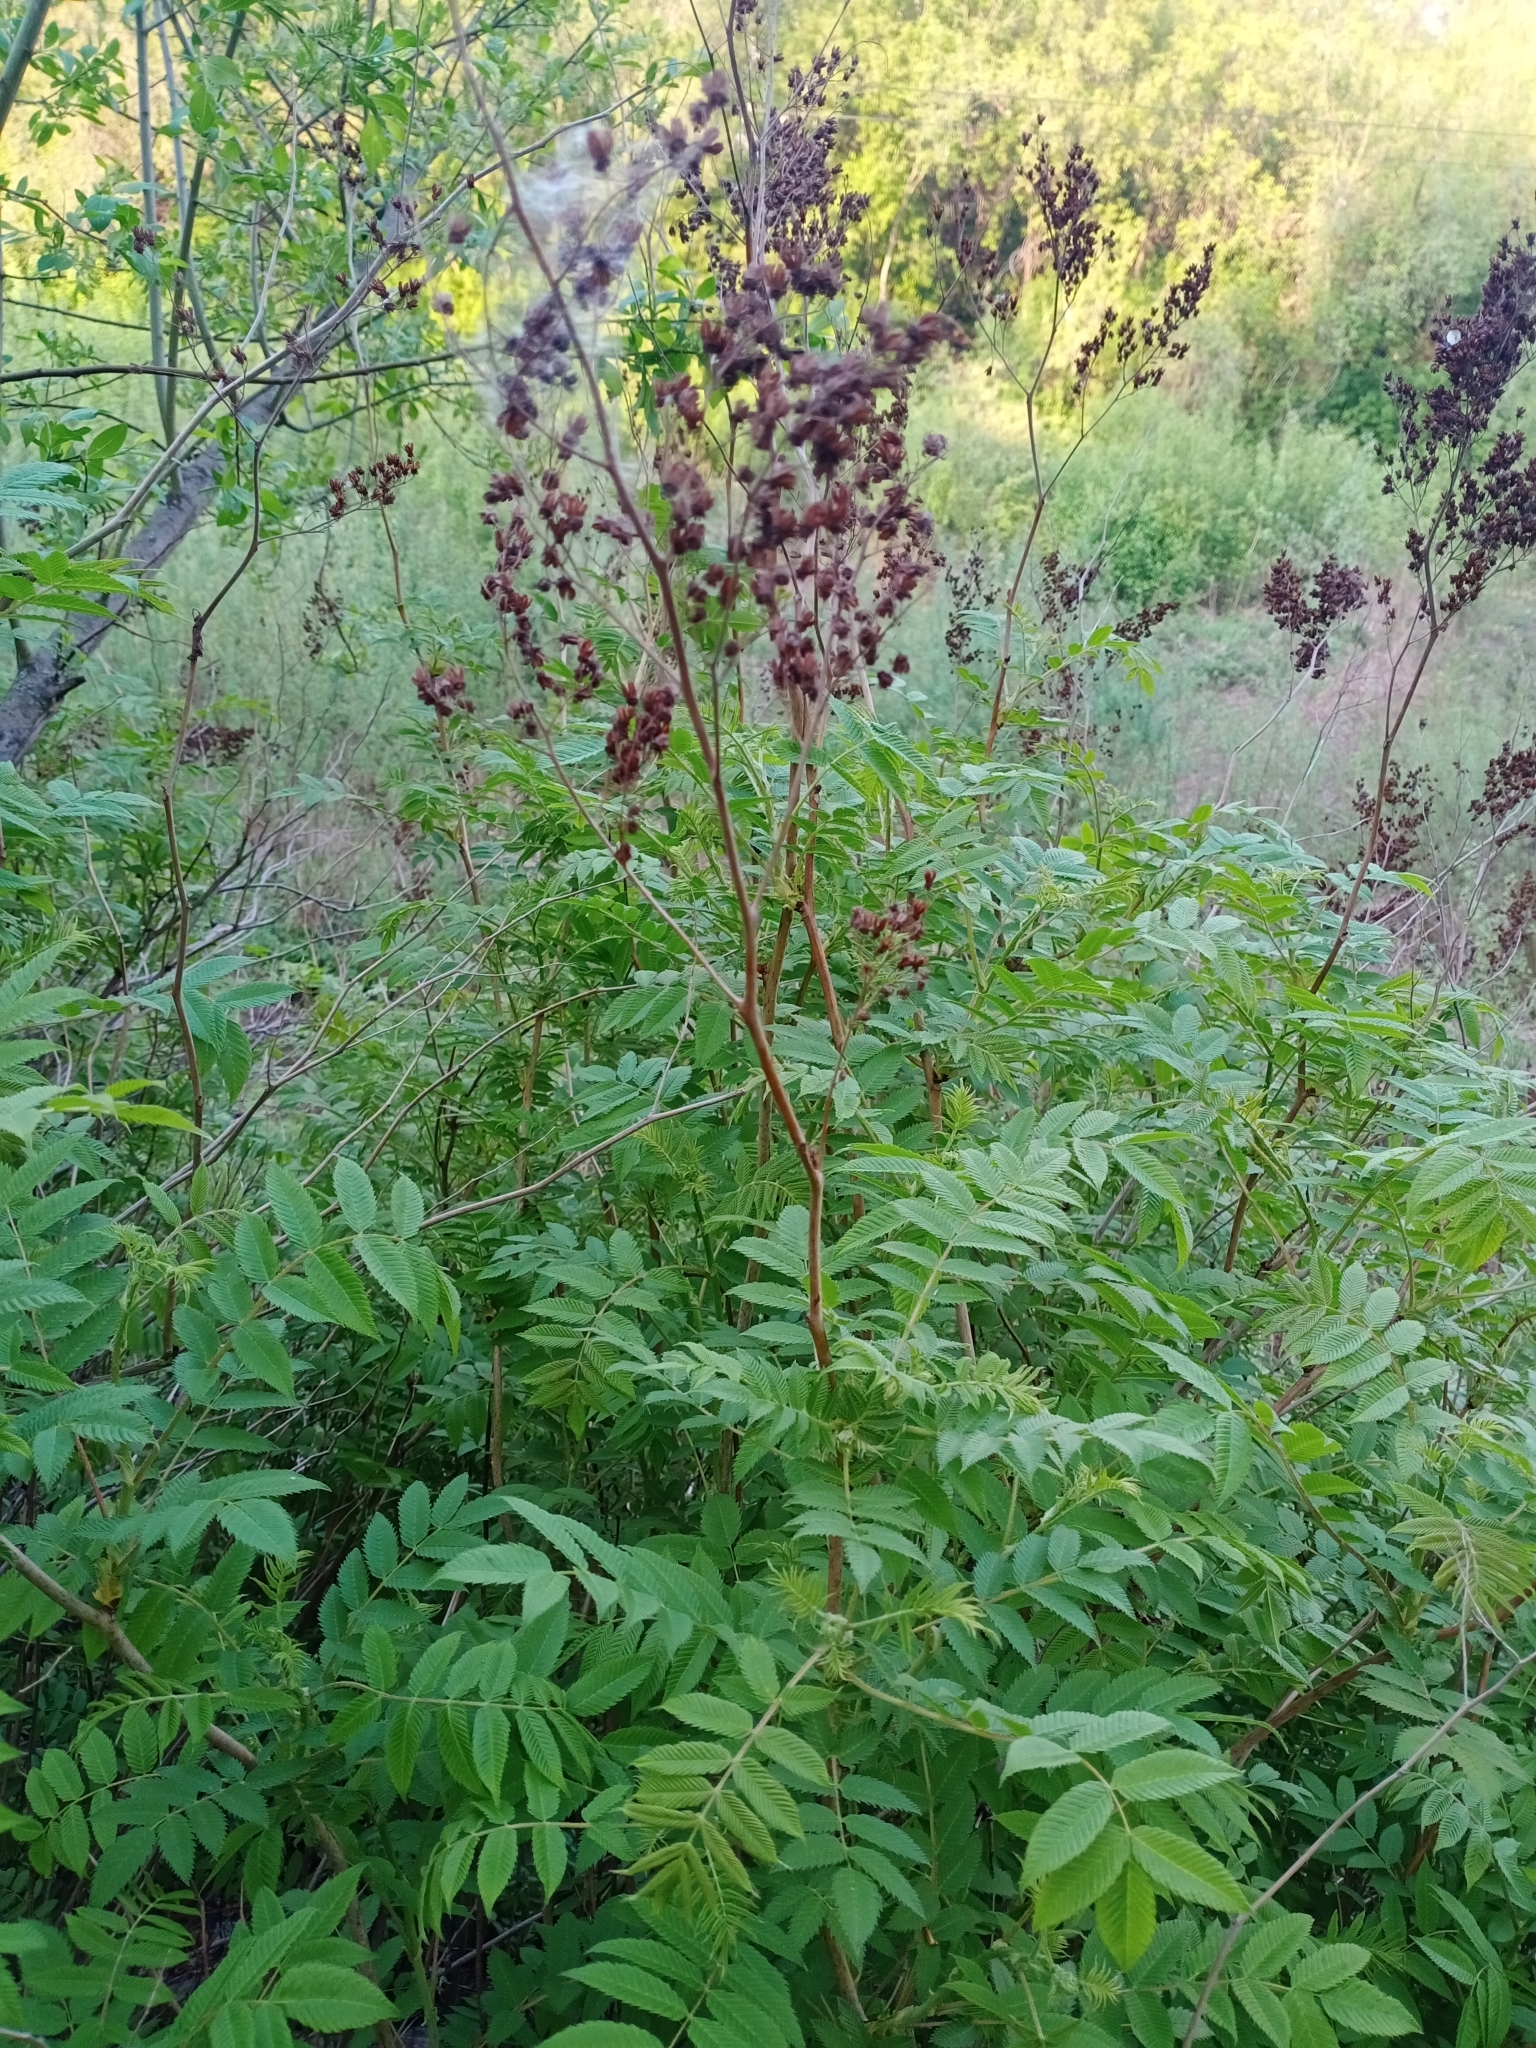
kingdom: Plantae
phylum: Tracheophyta
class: Magnoliopsida
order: Rosales
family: Rosaceae
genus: Sorbaria
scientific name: Sorbaria sorbifolia
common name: False spiraea
